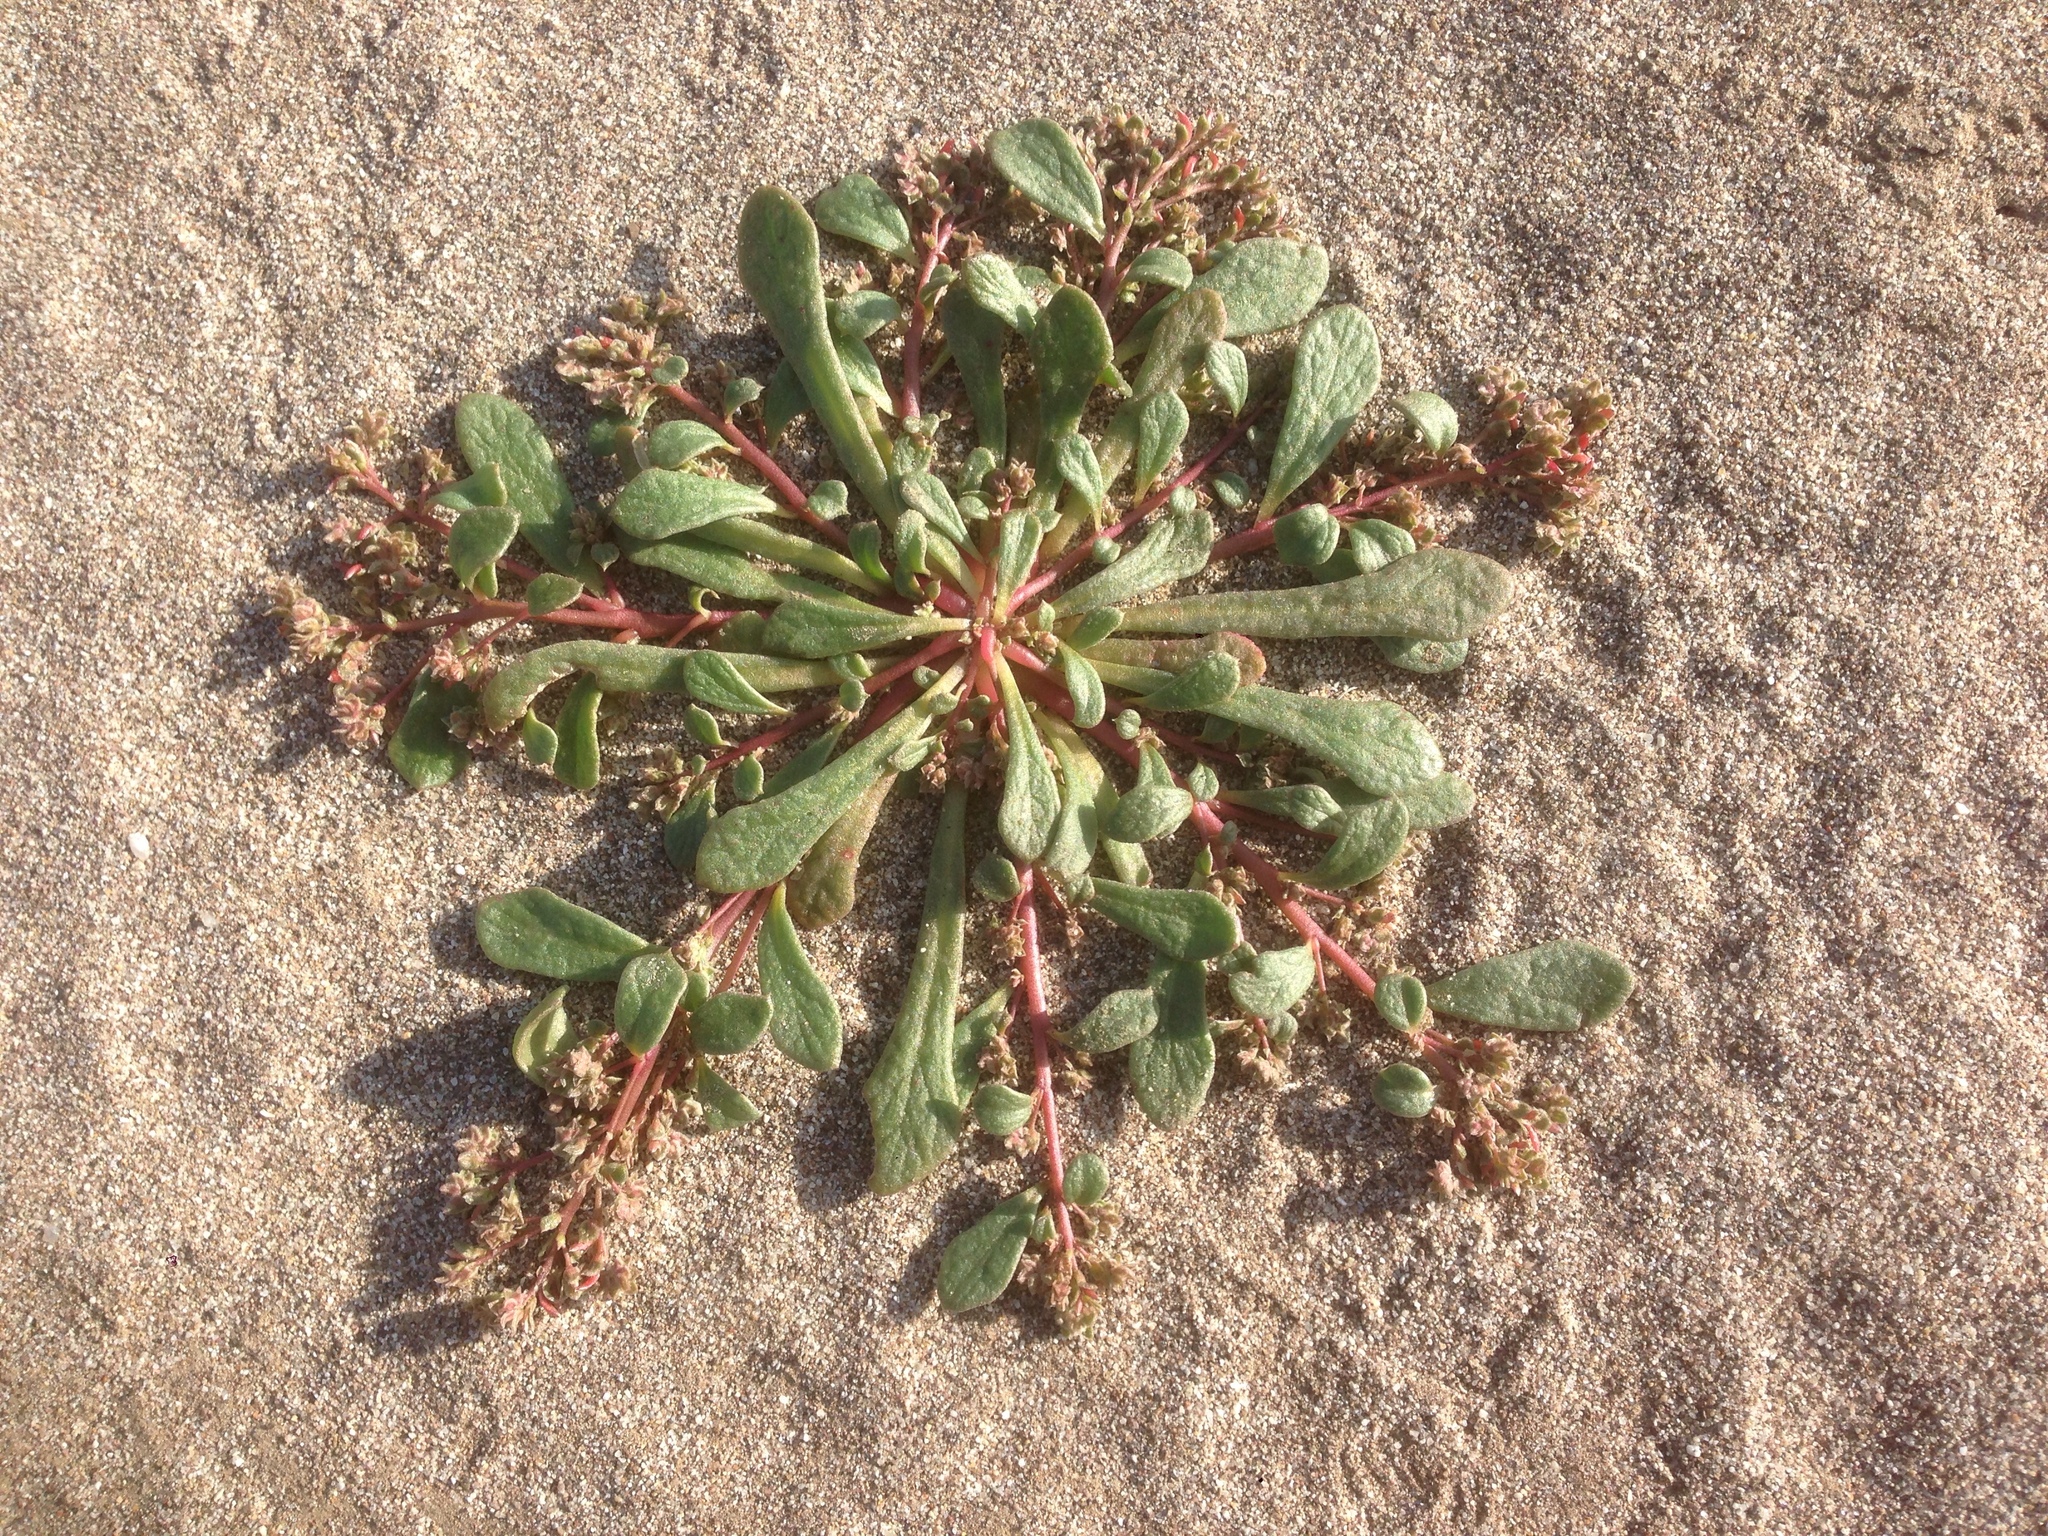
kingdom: Plantae
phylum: Tracheophyta
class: Magnoliopsida
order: Caryophyllales
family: Montiaceae
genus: Calyptridium
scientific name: Calyptridium monandrum
